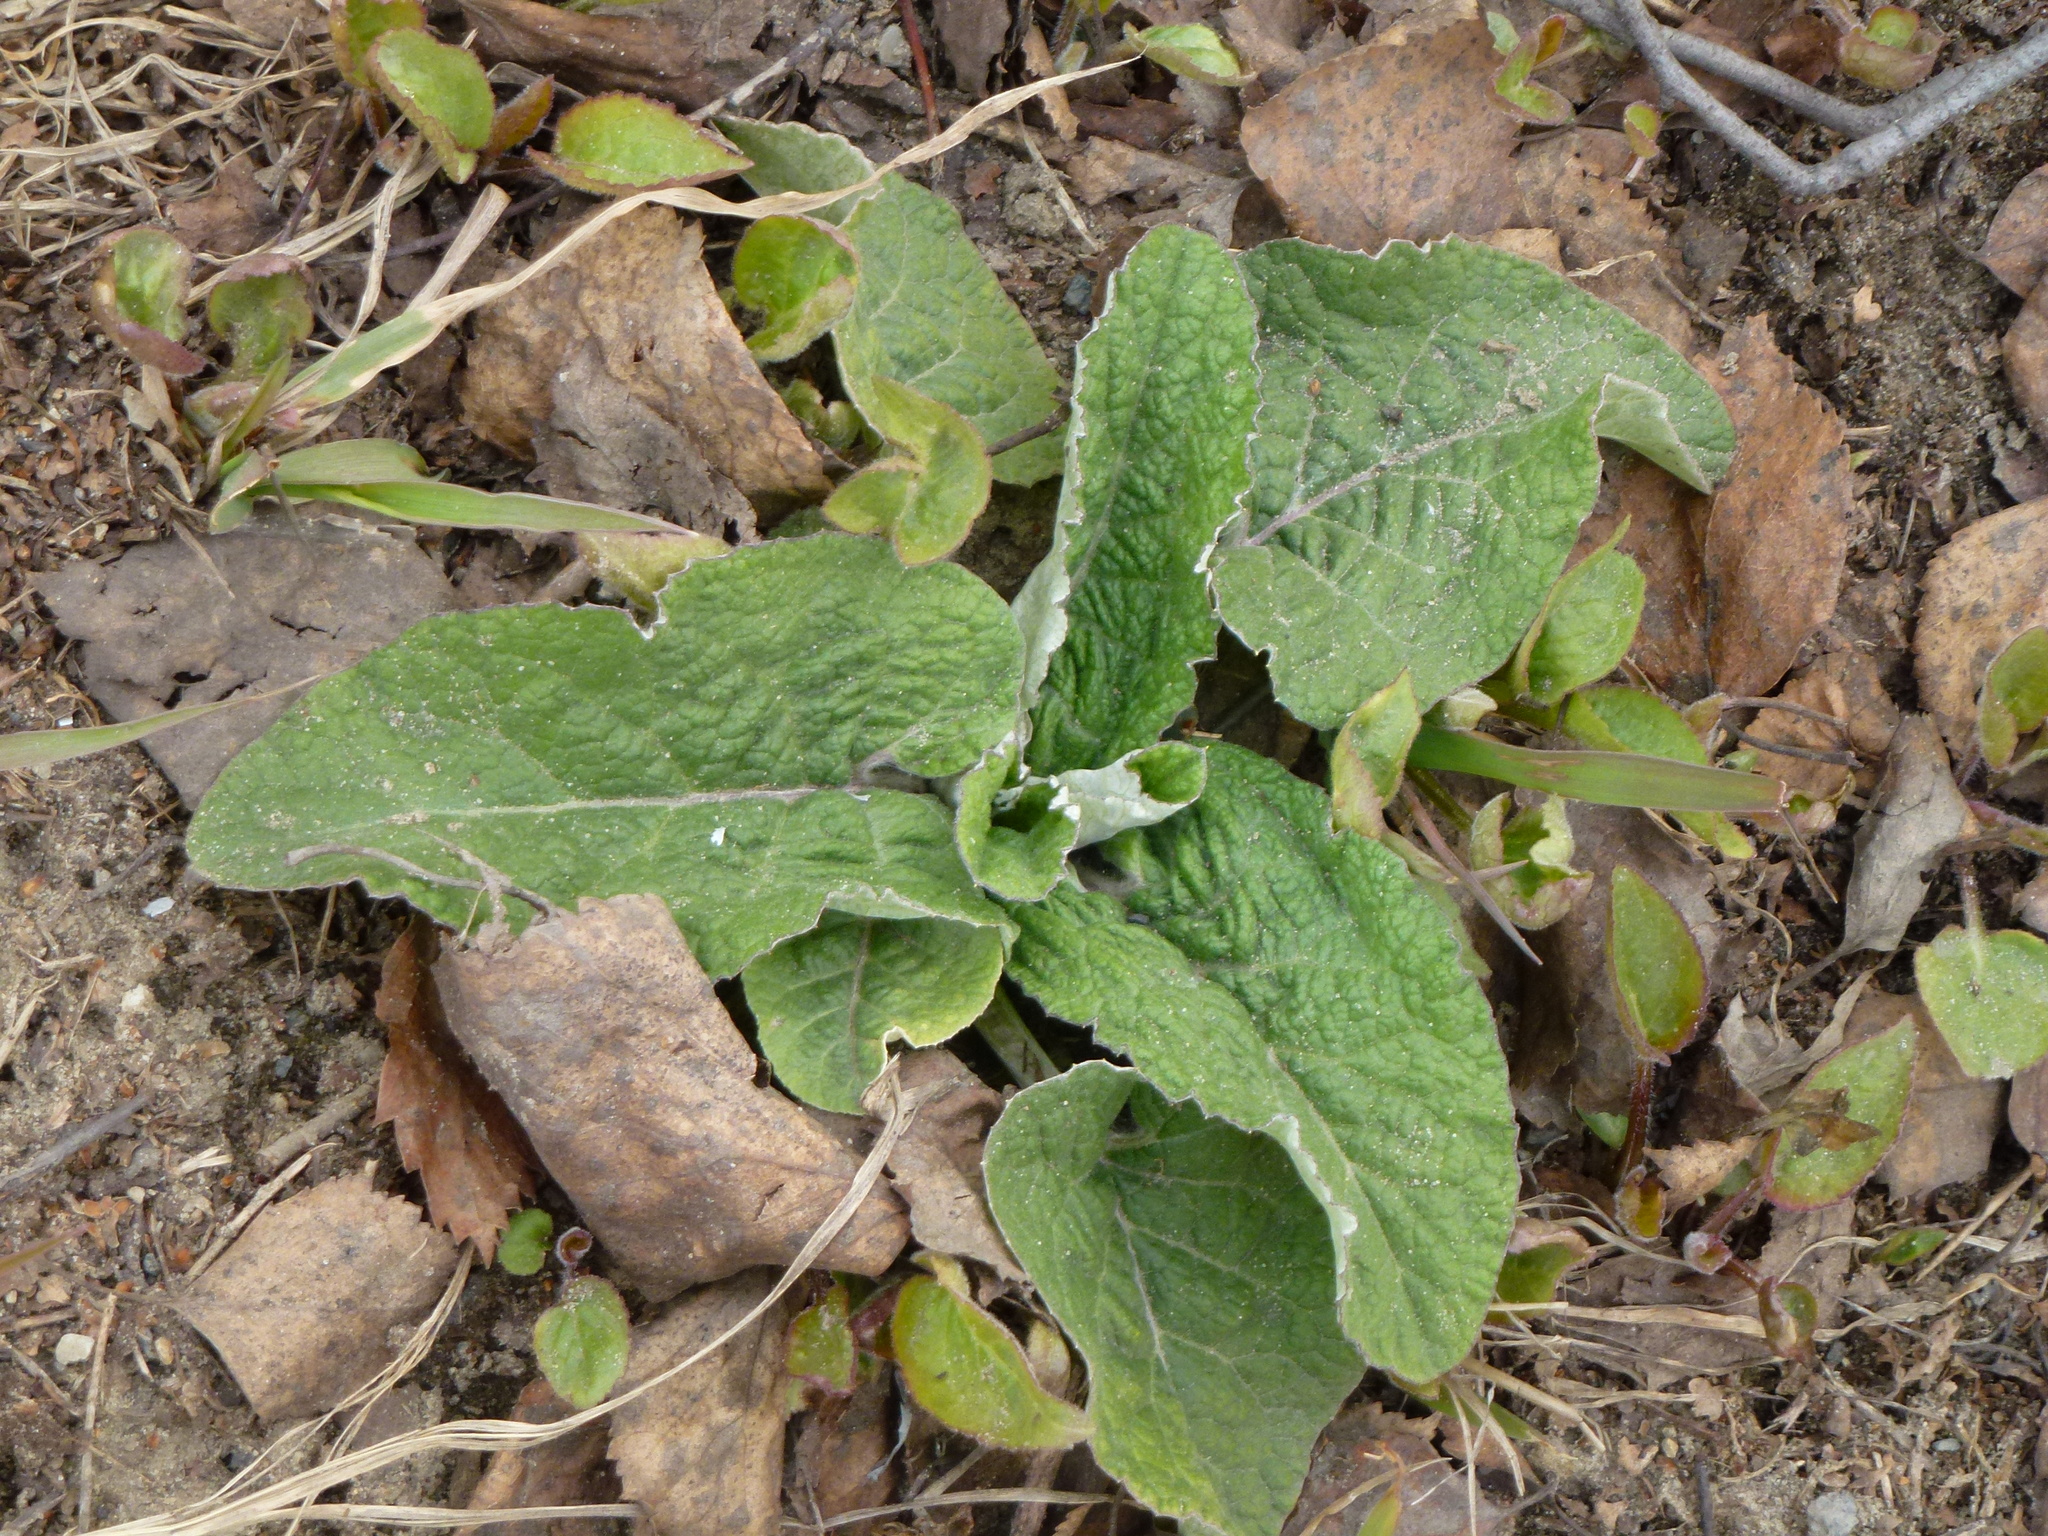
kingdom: Plantae
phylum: Tracheophyta
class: Magnoliopsida
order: Asterales
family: Asteraceae
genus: Arctium
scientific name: Arctium tomentosum
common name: Woolly burdock
